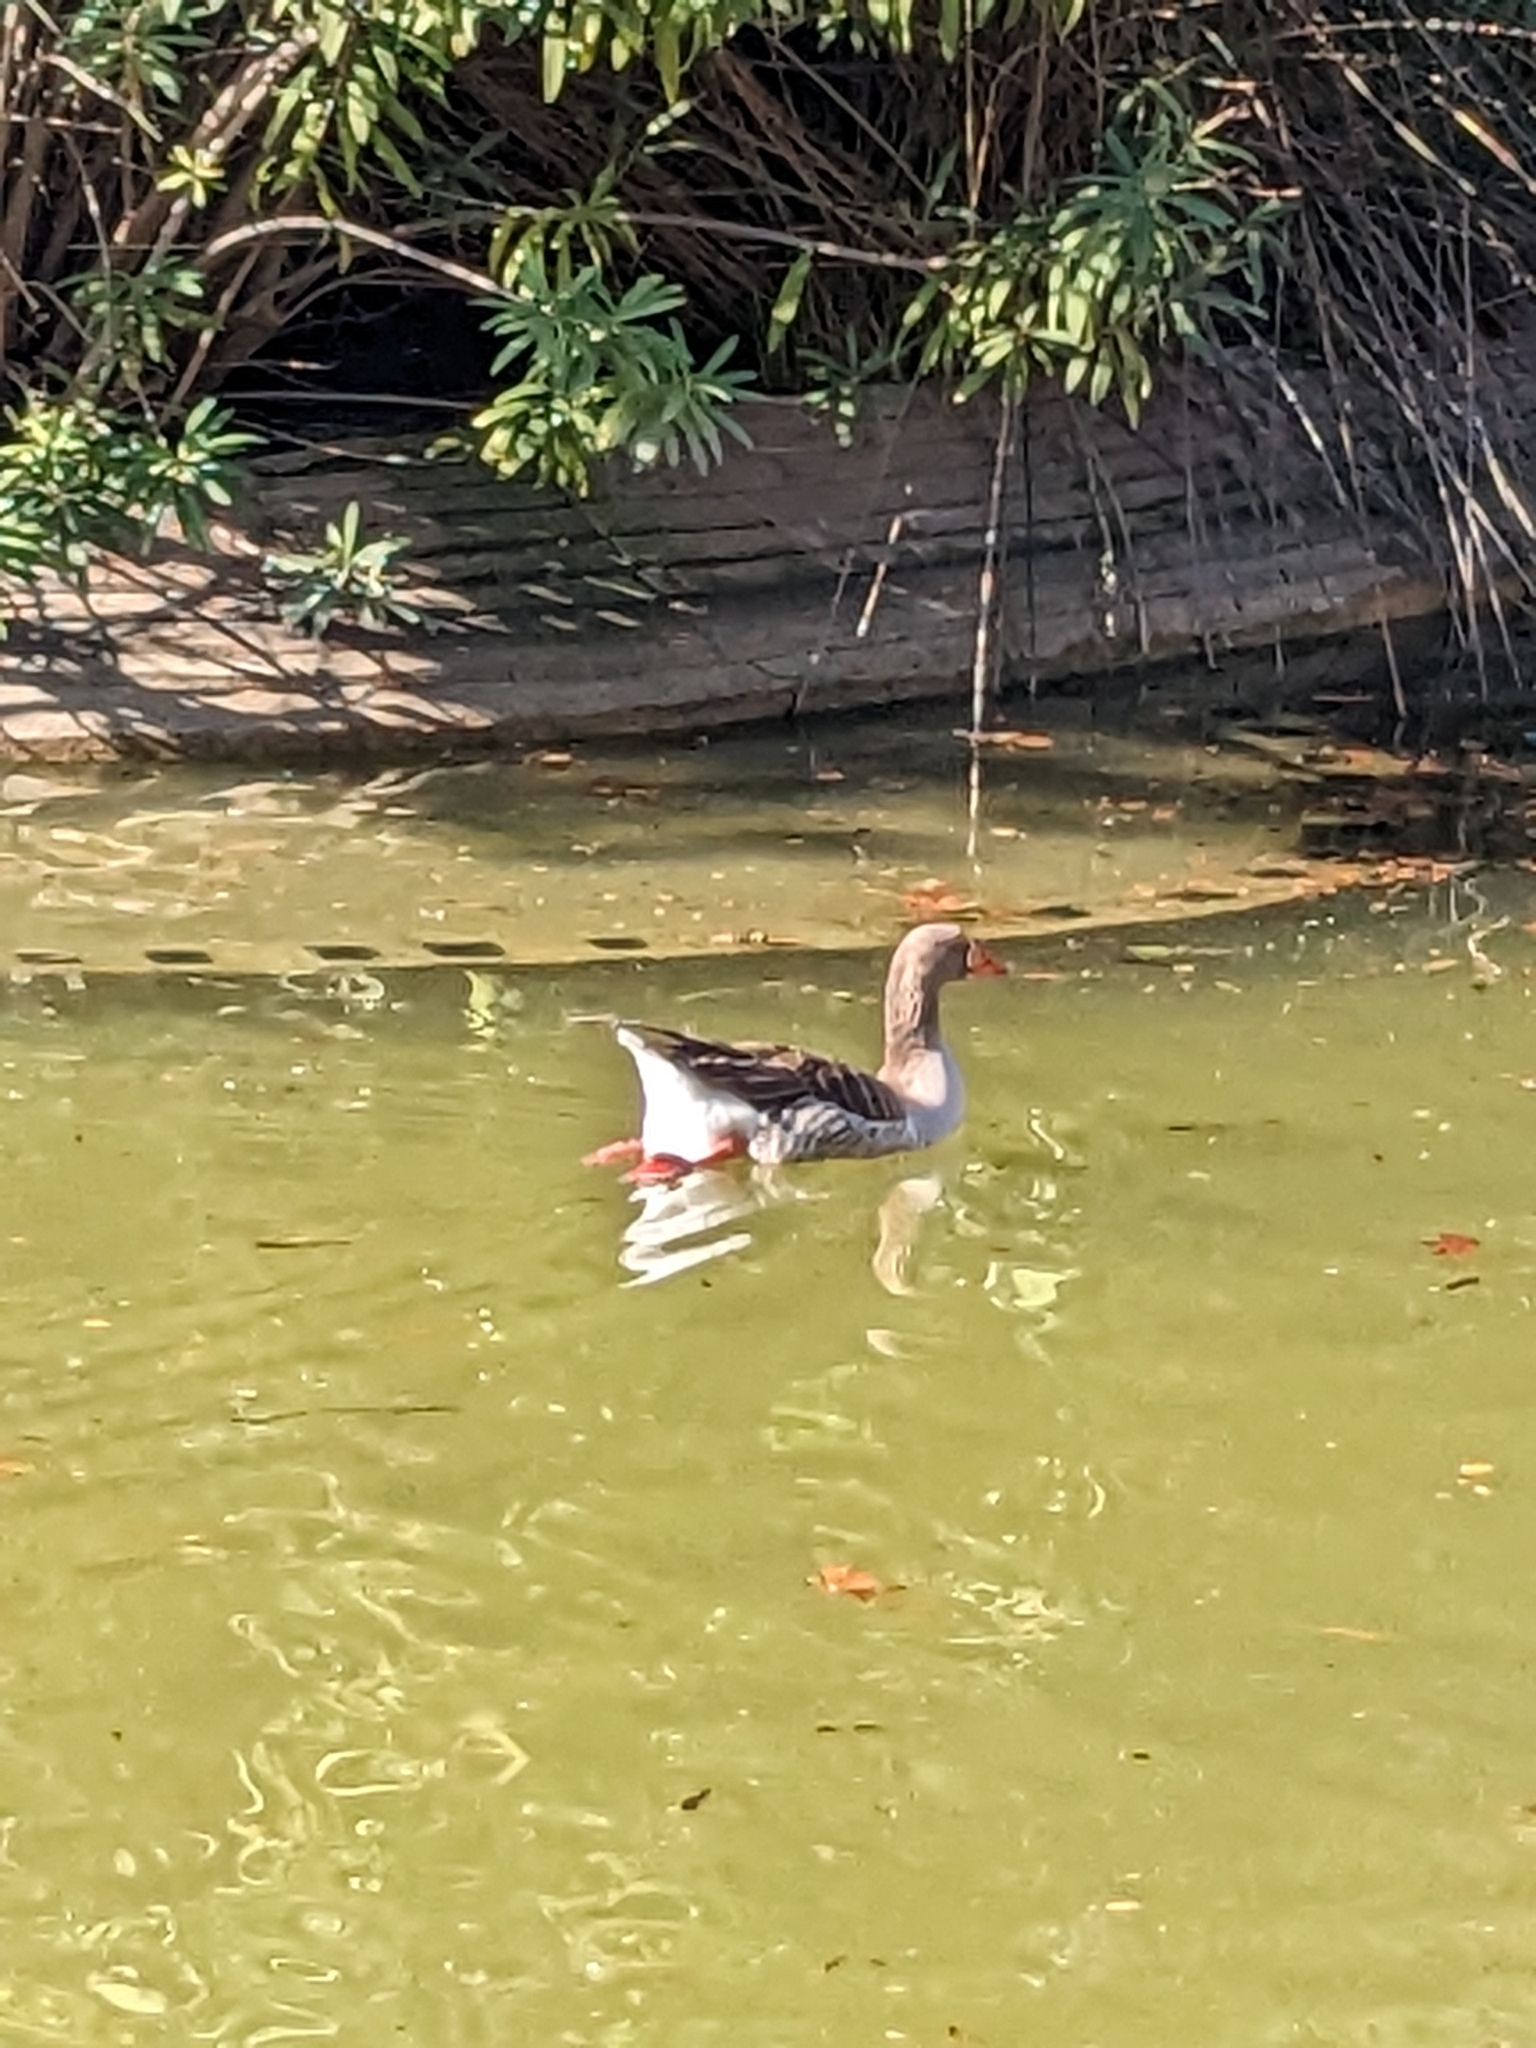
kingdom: Animalia
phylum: Chordata
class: Aves
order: Anseriformes
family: Anatidae
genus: Anser
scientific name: Anser anser
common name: Greylag goose
